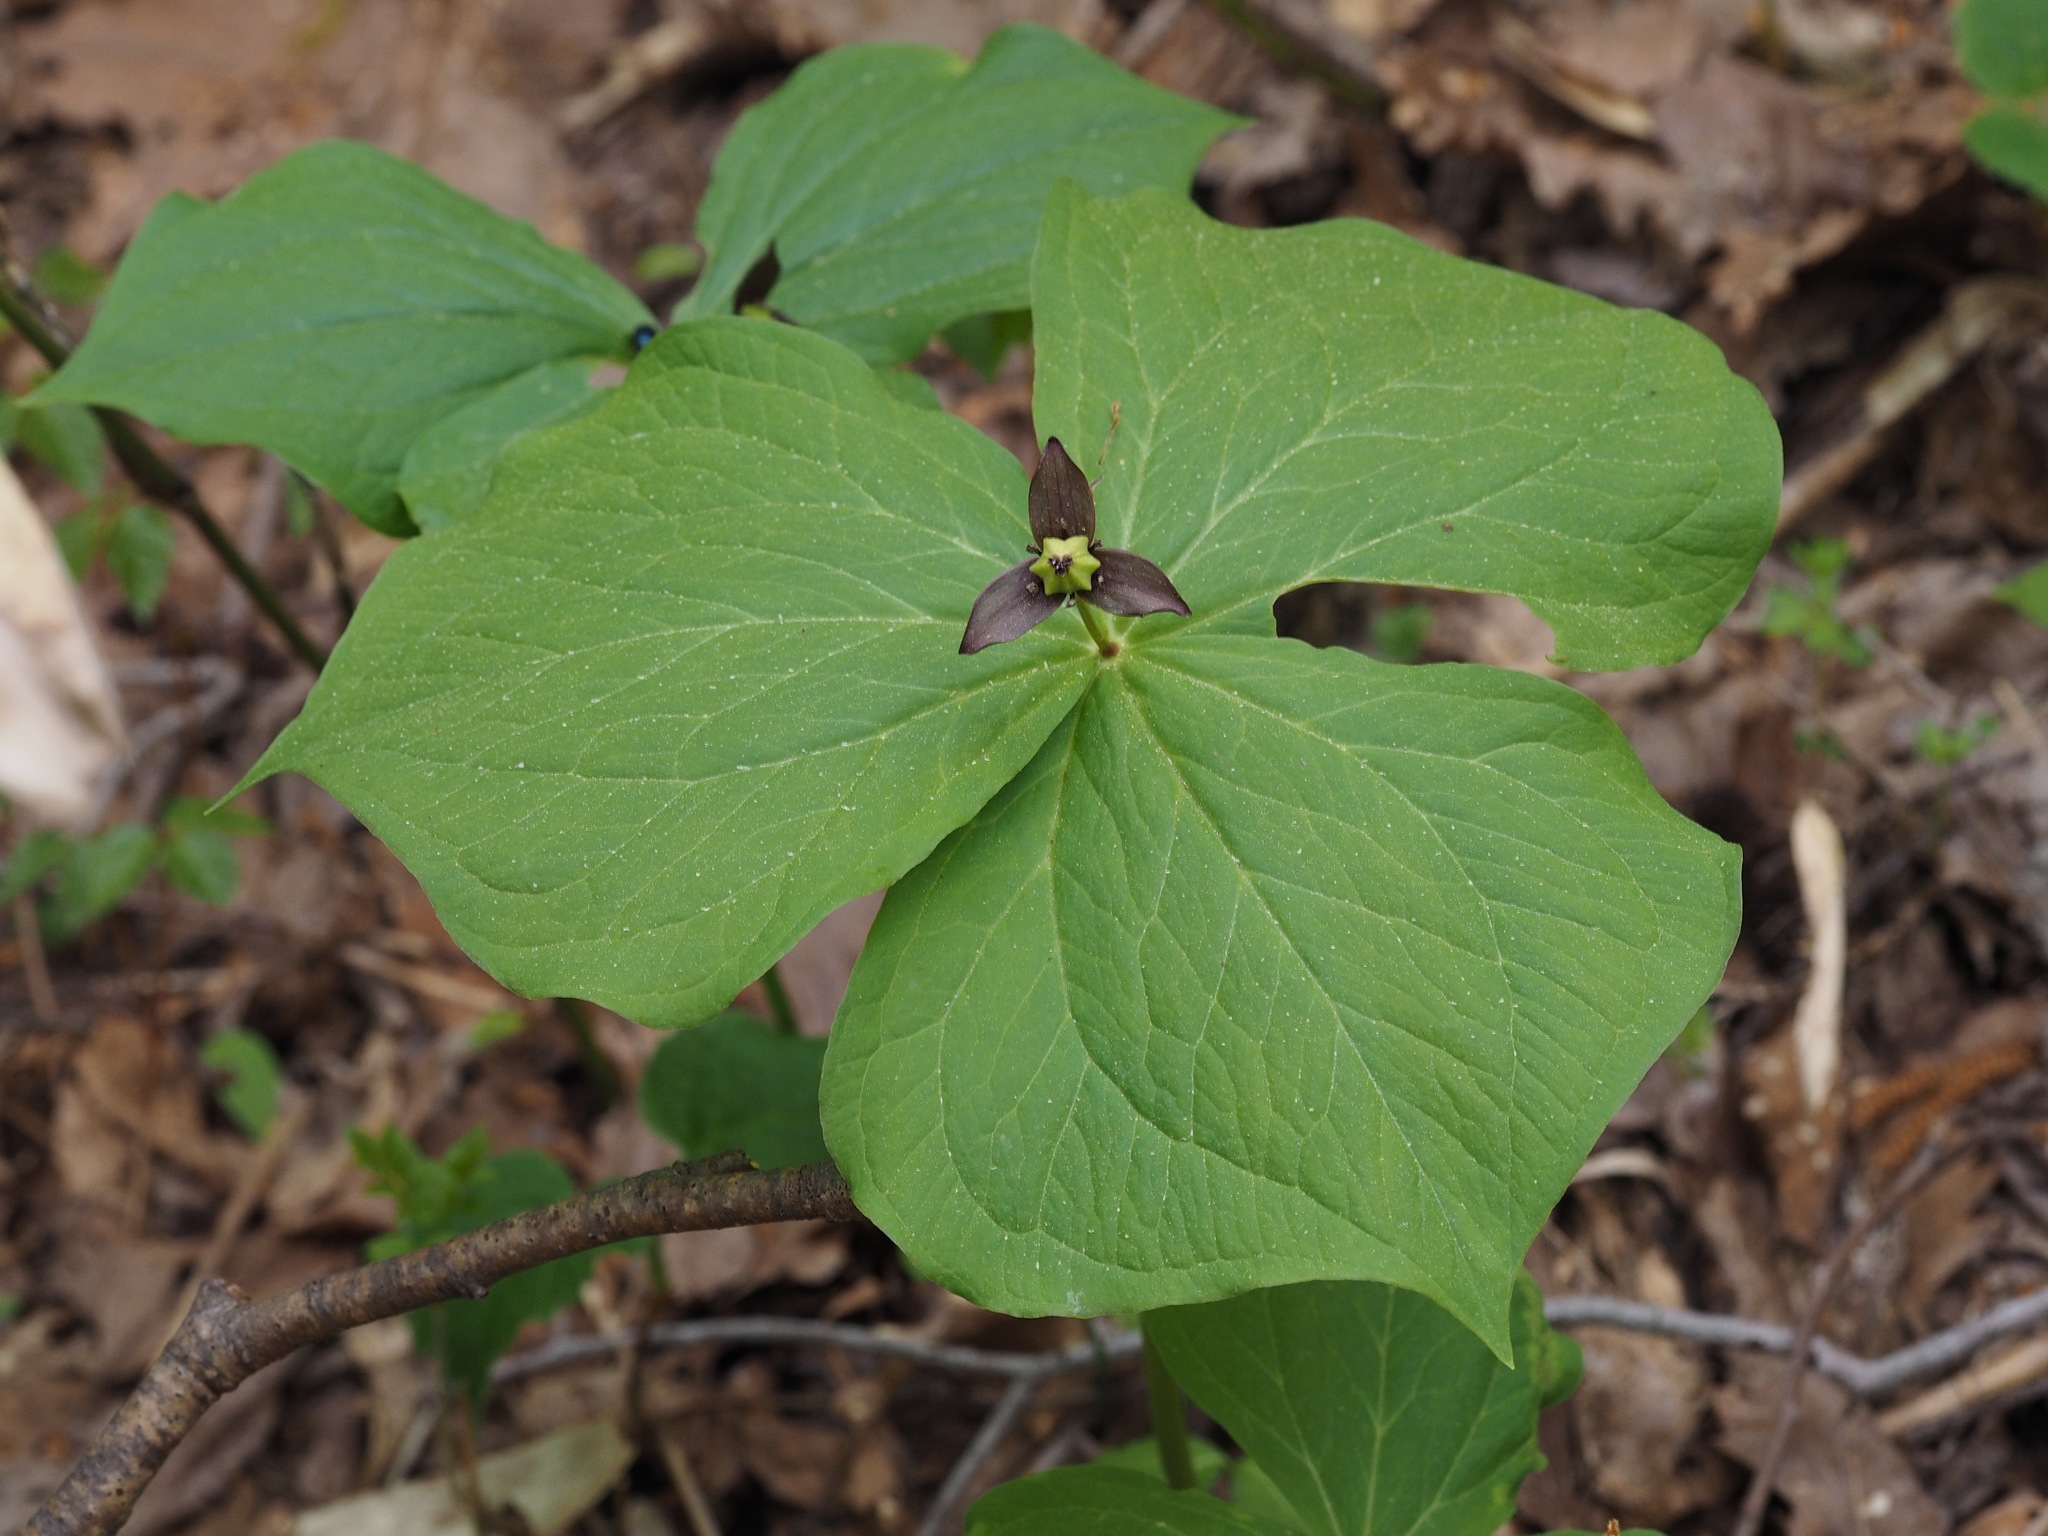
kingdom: Plantae
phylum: Tracheophyta
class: Liliopsida
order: Liliales
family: Melanthiaceae
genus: Trillium
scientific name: Trillium apetalon
